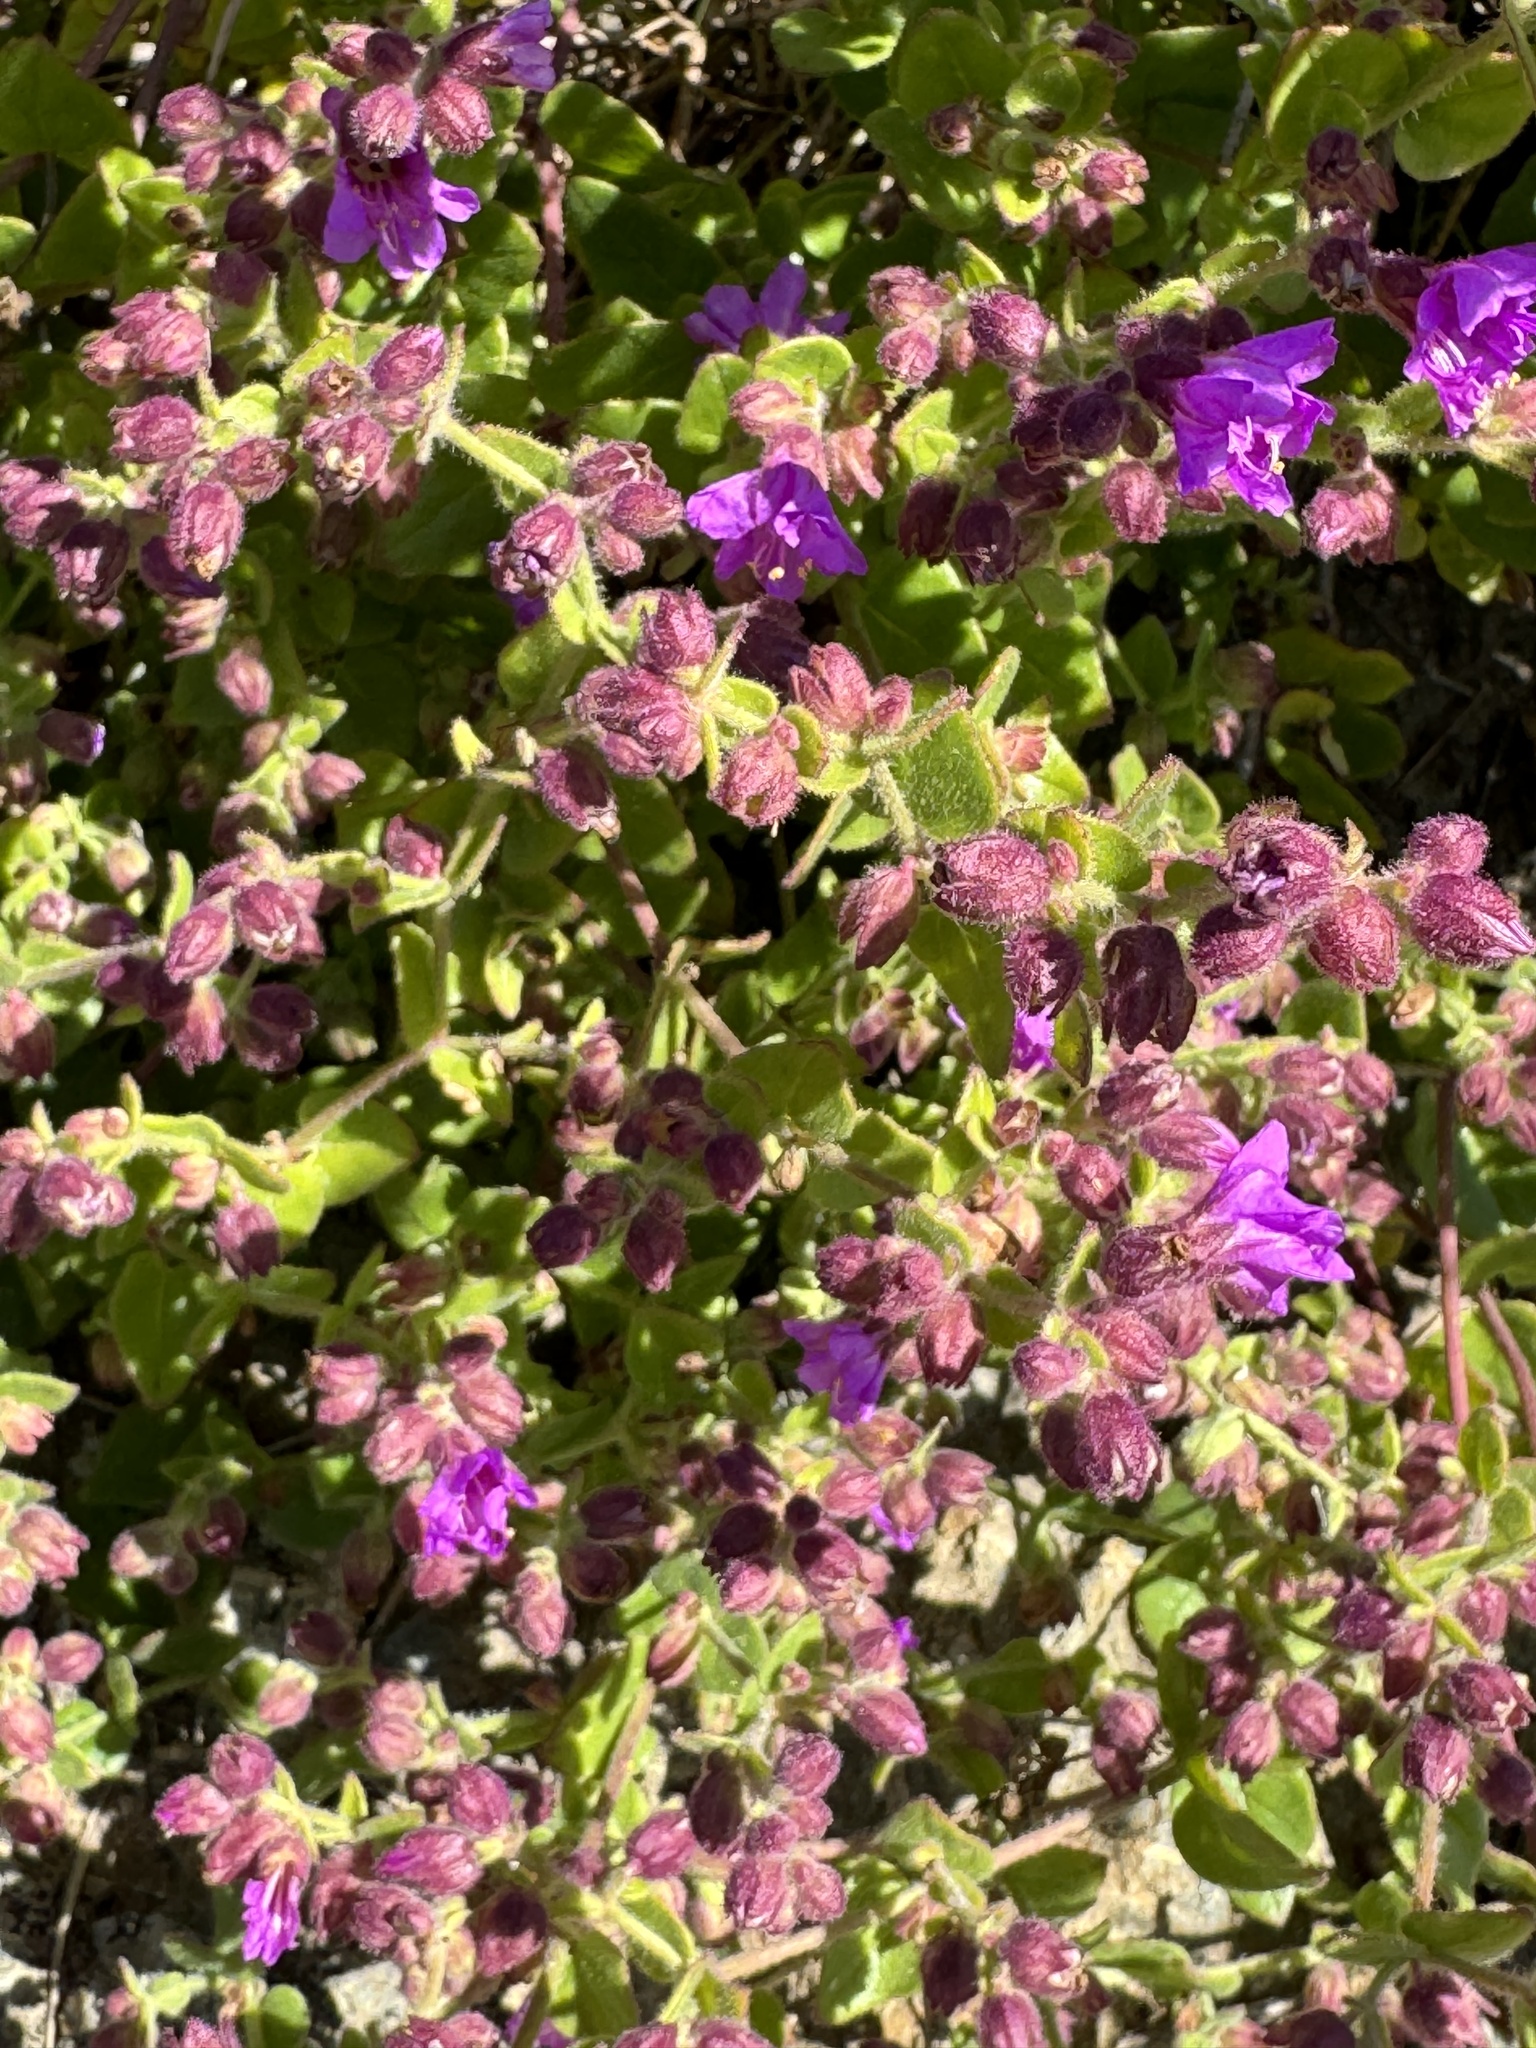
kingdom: Plantae
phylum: Tracheophyta
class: Magnoliopsida
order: Caryophyllales
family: Nyctaginaceae
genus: Mirabilis
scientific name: Mirabilis laevis
